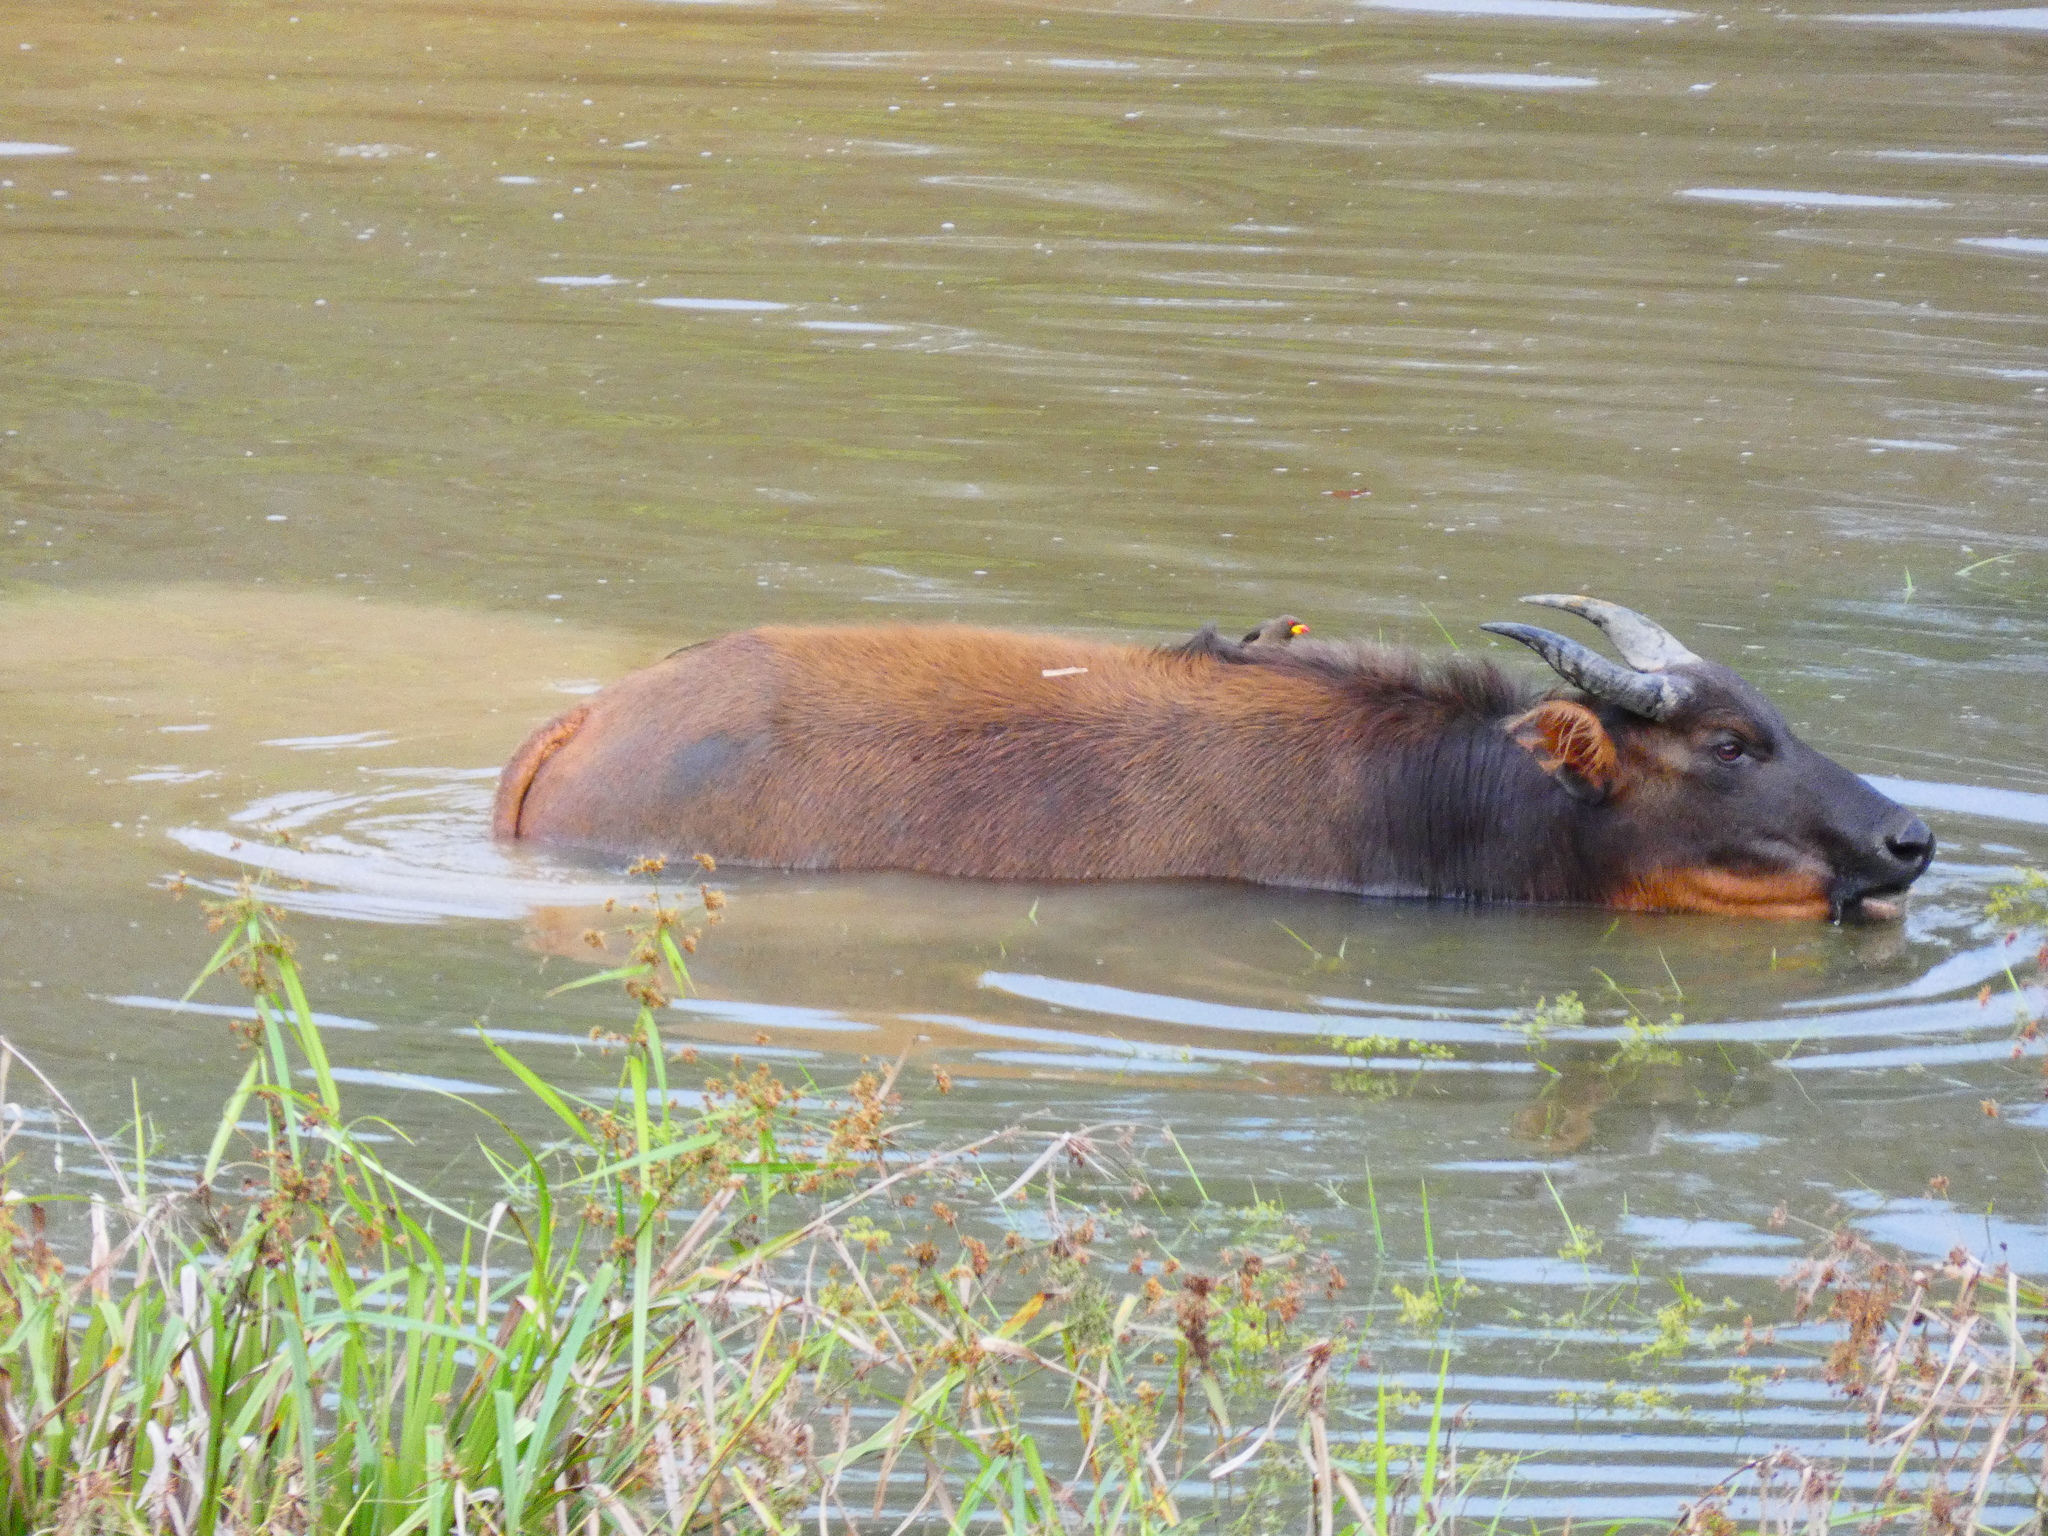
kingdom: Animalia
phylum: Chordata
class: Mammalia
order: Artiodactyla
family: Bovidae
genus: Syncerus
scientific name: Syncerus caffer
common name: African buffalo
